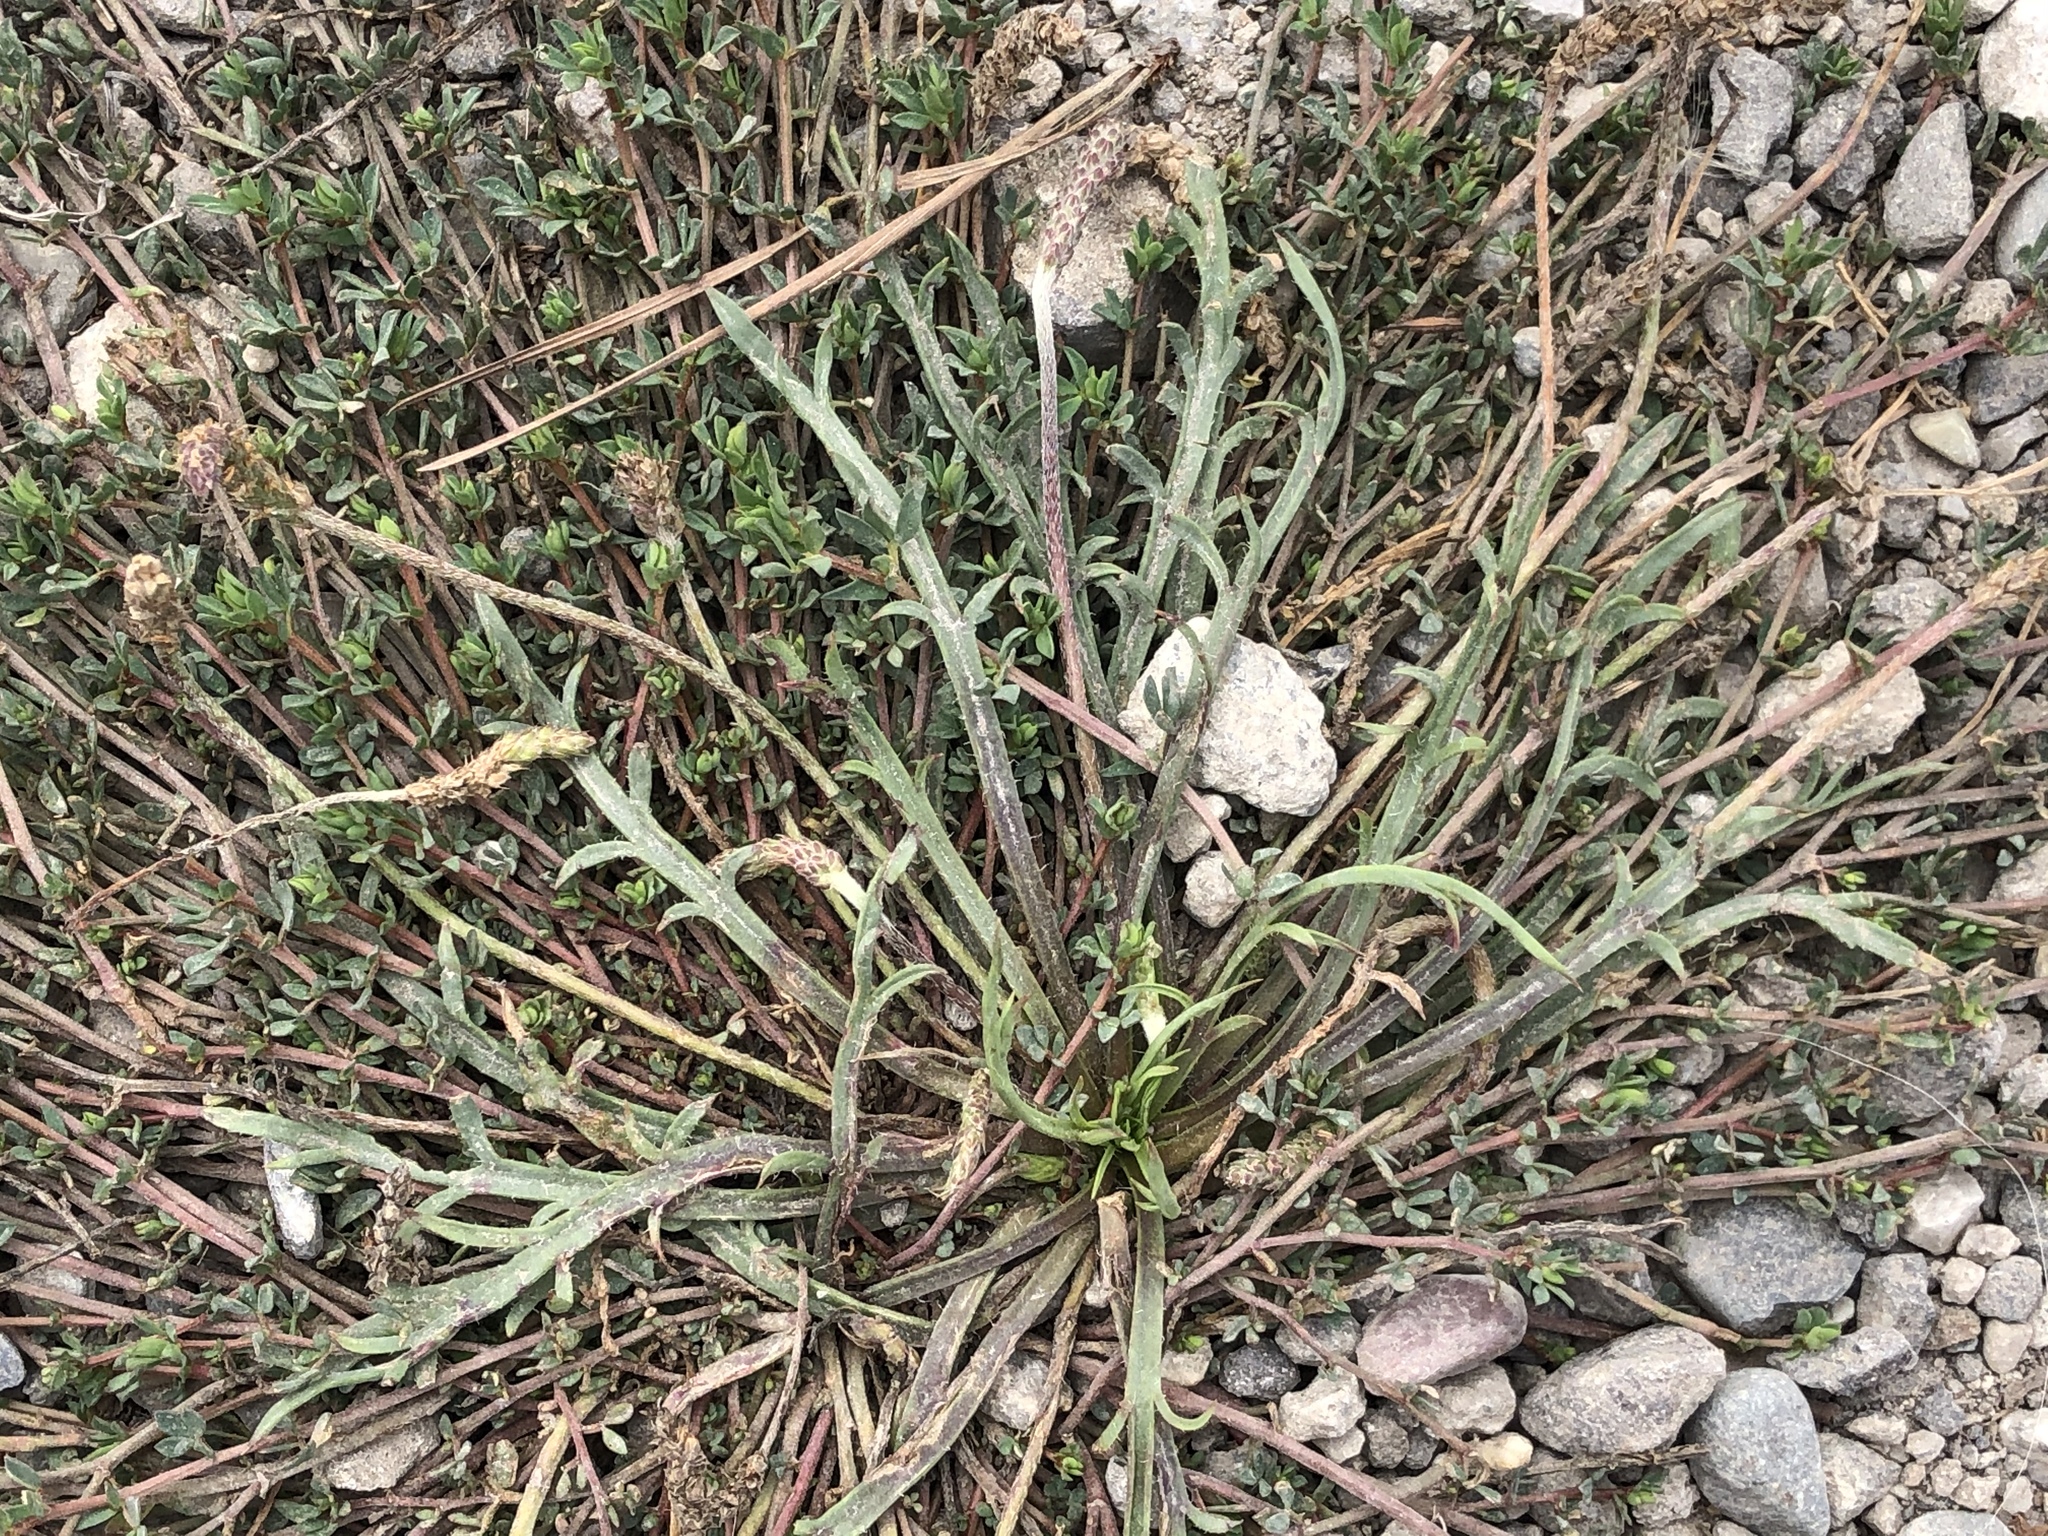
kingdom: Plantae
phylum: Tracheophyta
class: Magnoliopsida
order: Lamiales
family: Plantaginaceae
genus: Plantago
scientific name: Plantago coronopus
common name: Buck's-horn plantain
